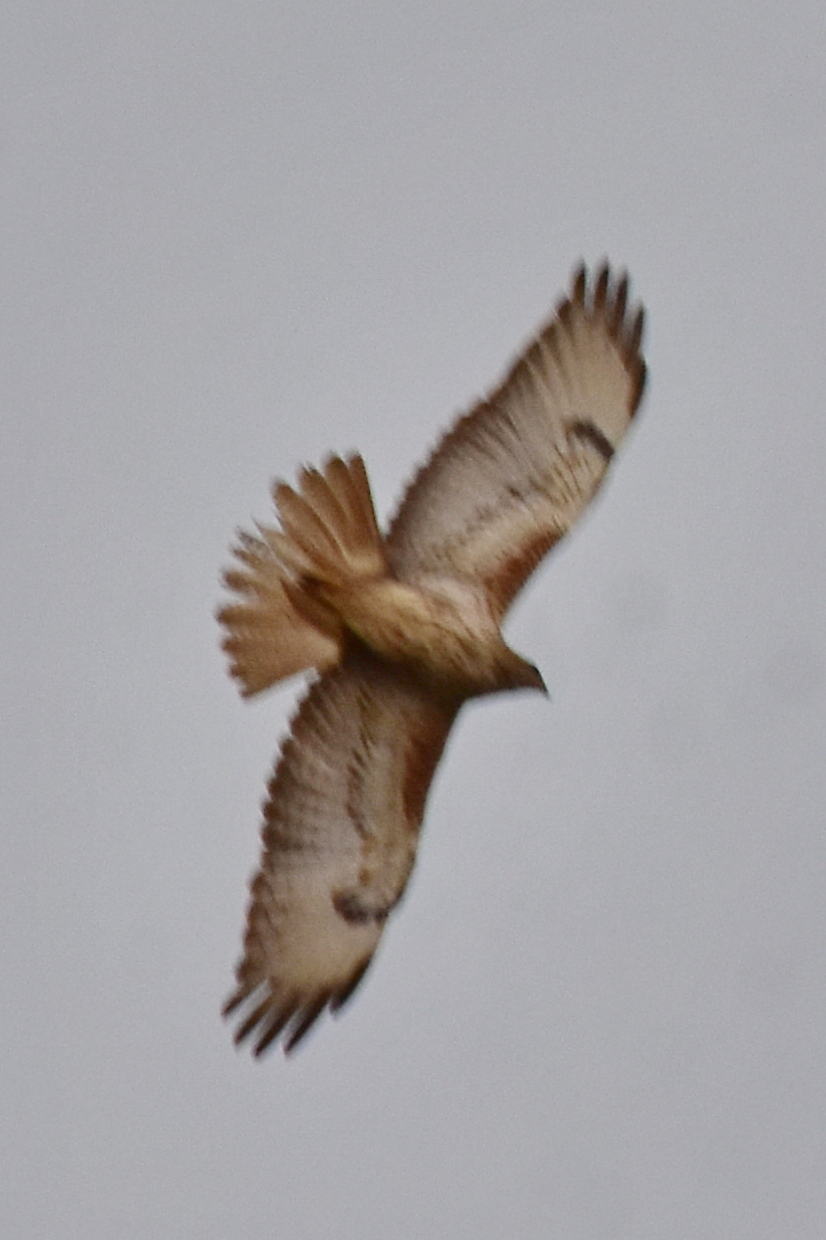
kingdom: Animalia
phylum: Chordata
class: Aves
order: Accipitriformes
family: Accipitridae
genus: Buteo
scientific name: Buteo rufinus
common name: Long-legged buzzard
